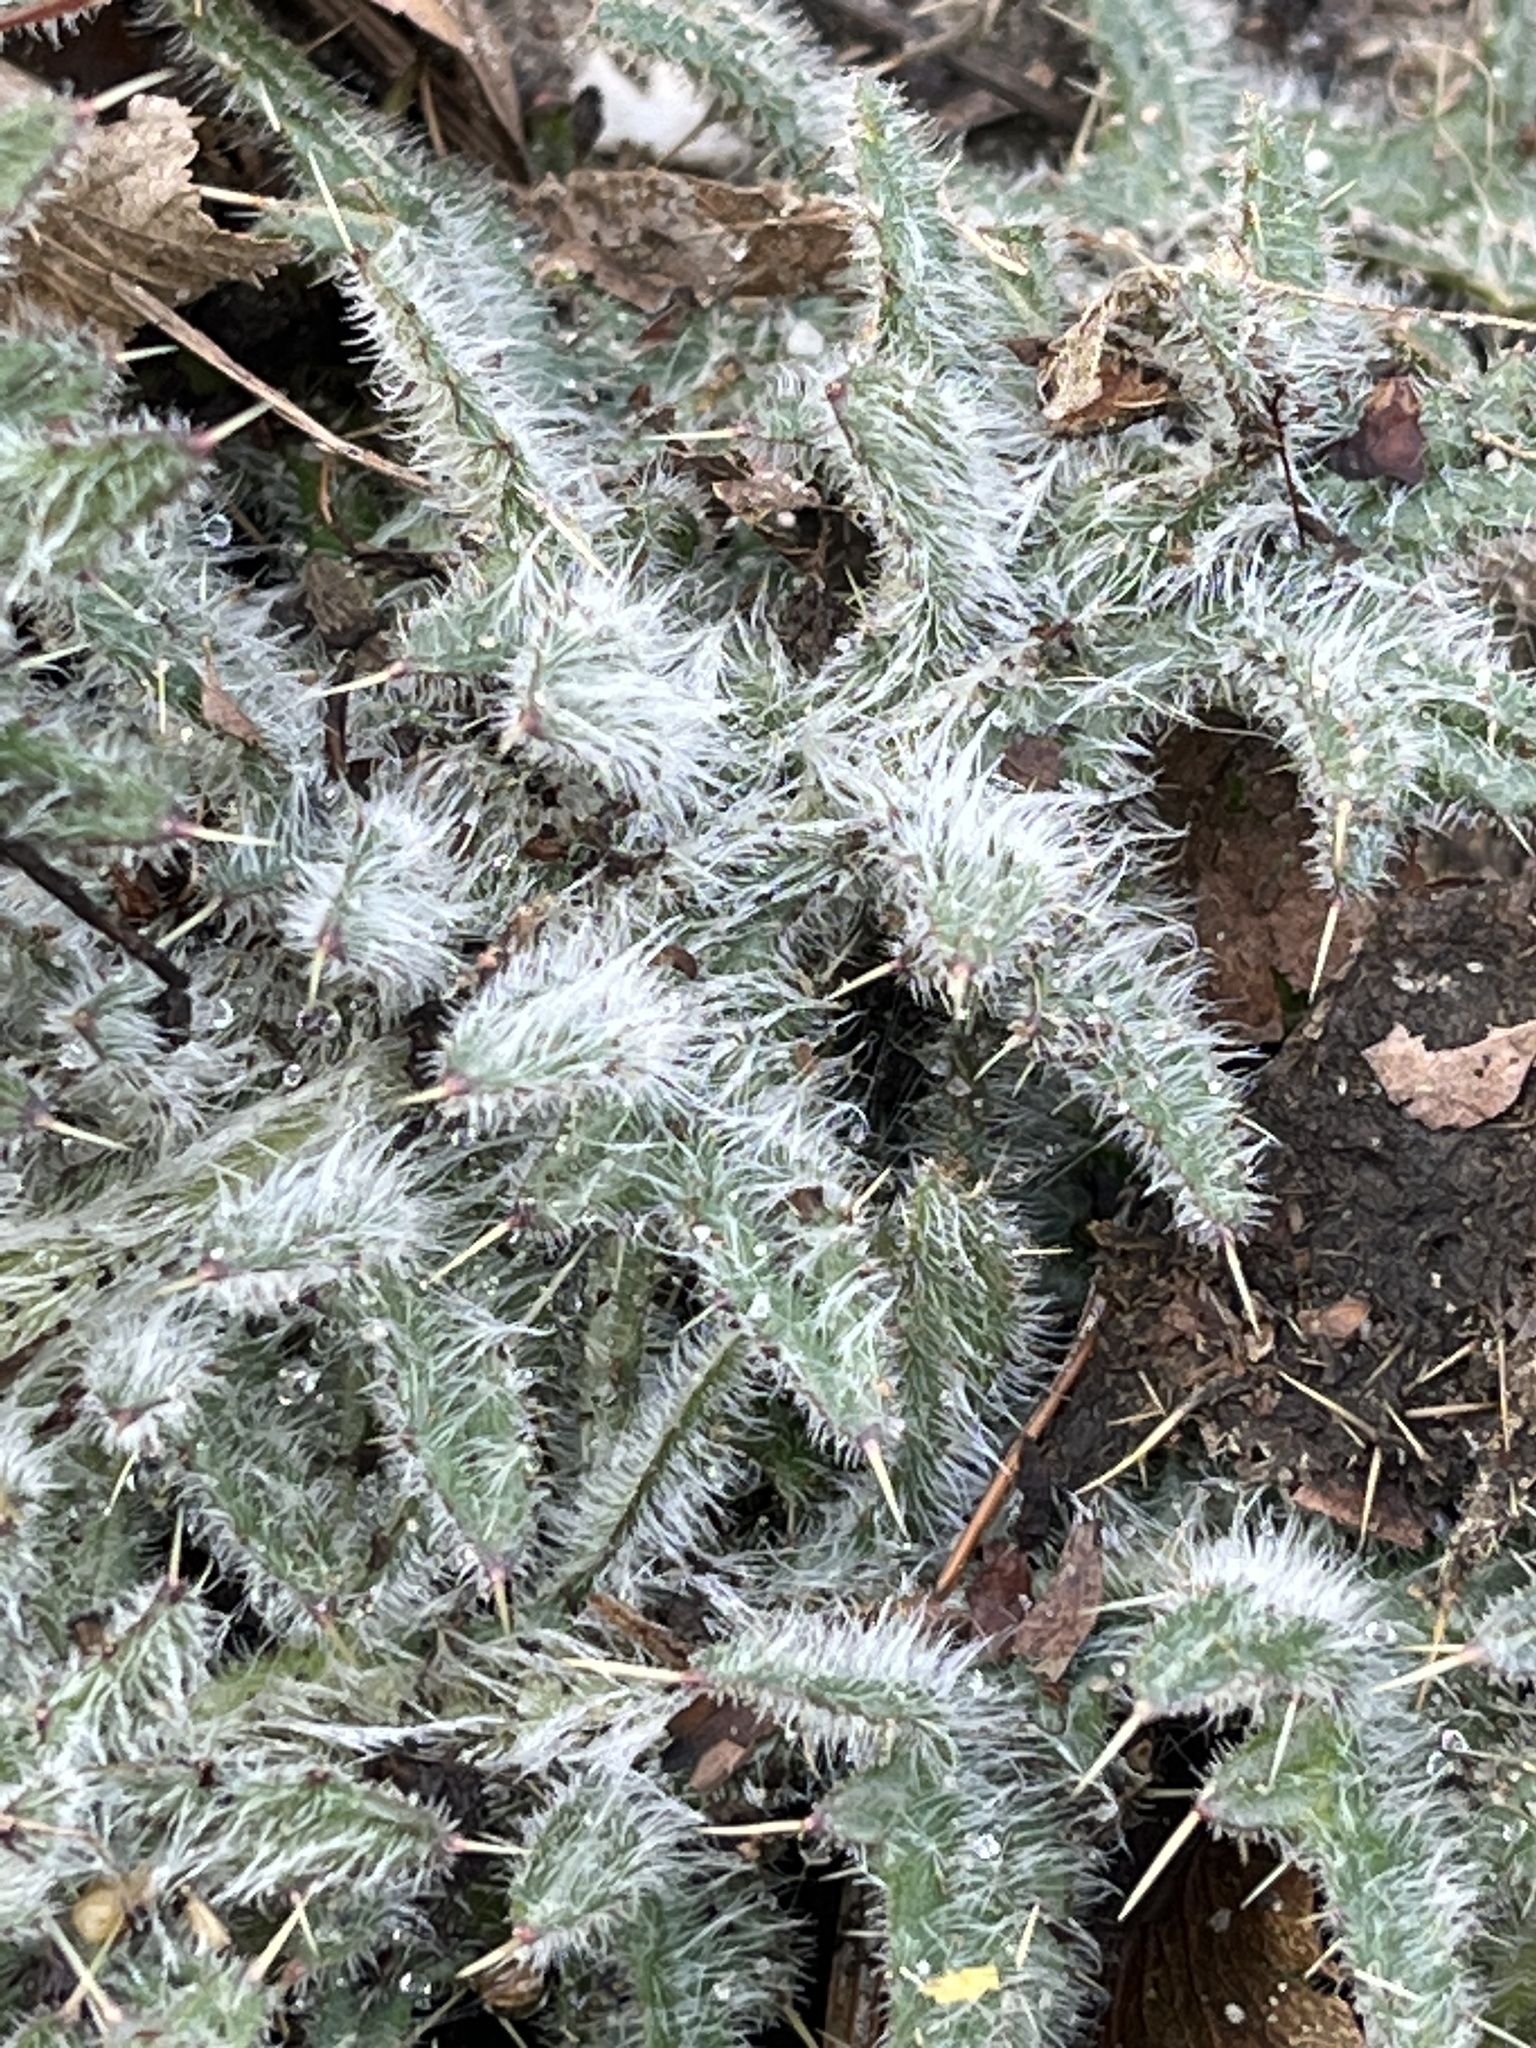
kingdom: Plantae
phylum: Tracheophyta
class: Magnoliopsida
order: Asterales
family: Asteraceae
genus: Cirsium
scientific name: Cirsium vulgare
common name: Bull thistle
